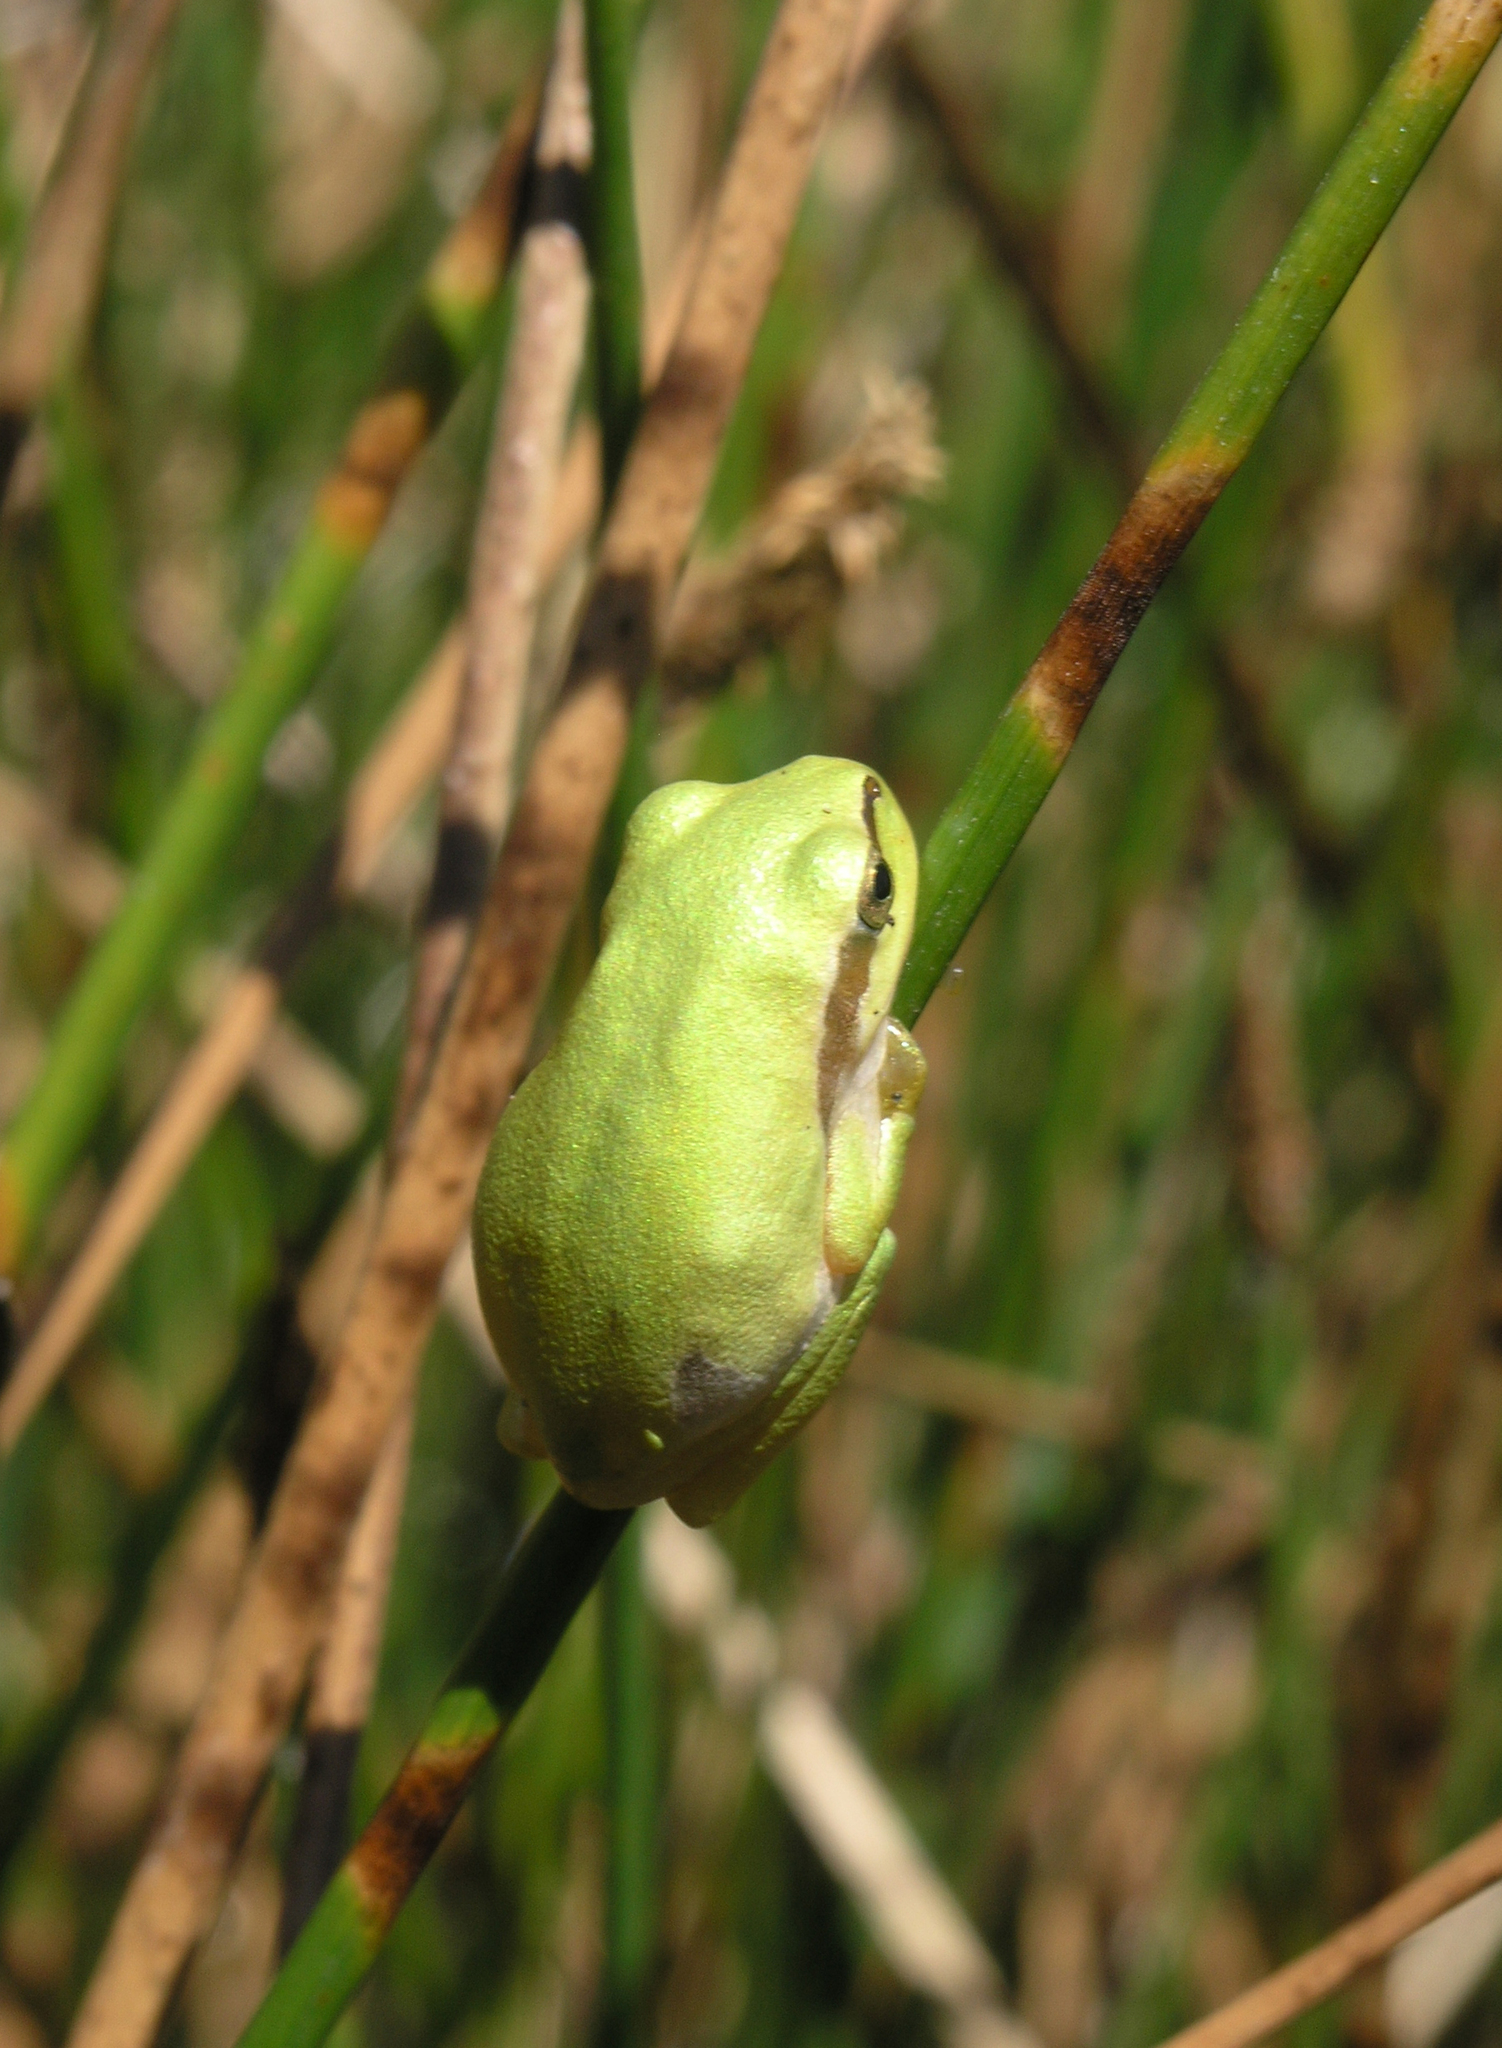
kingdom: Animalia
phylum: Chordata
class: Amphibia
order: Anura
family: Hylidae
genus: Hyla
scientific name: Hyla molleri
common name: Iberian tree frog
